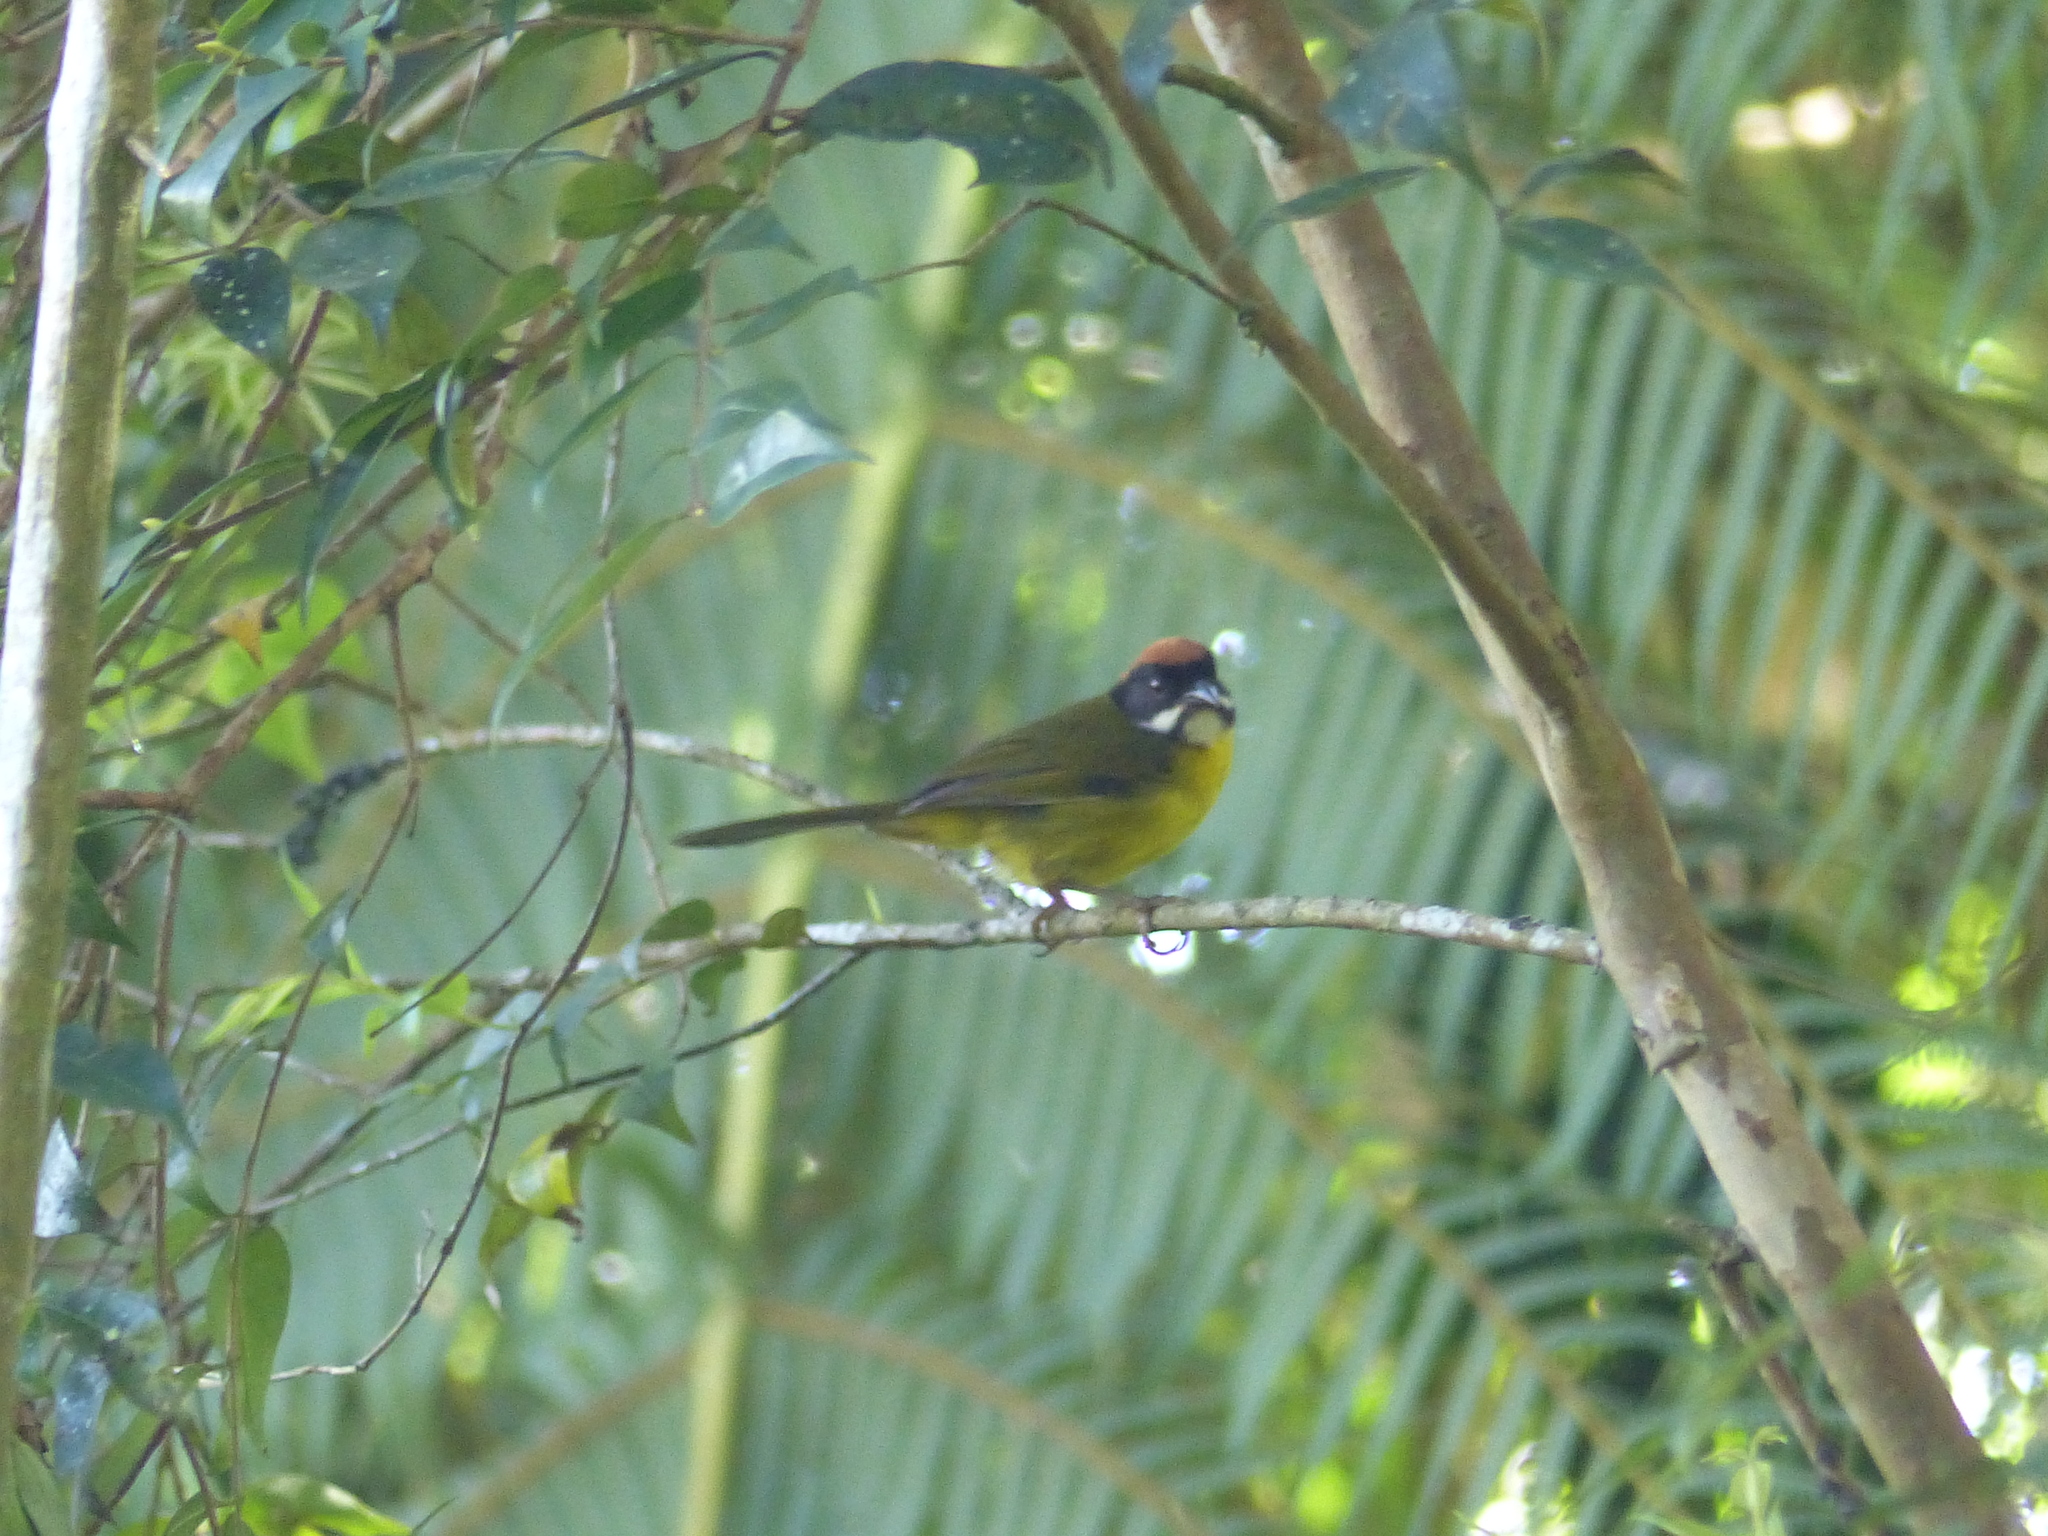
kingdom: Animalia
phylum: Chordata
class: Aves
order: Passeriformes
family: Passerellidae
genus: Atlapetes
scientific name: Atlapetes albofrenatus
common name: Moustached brushfinch
